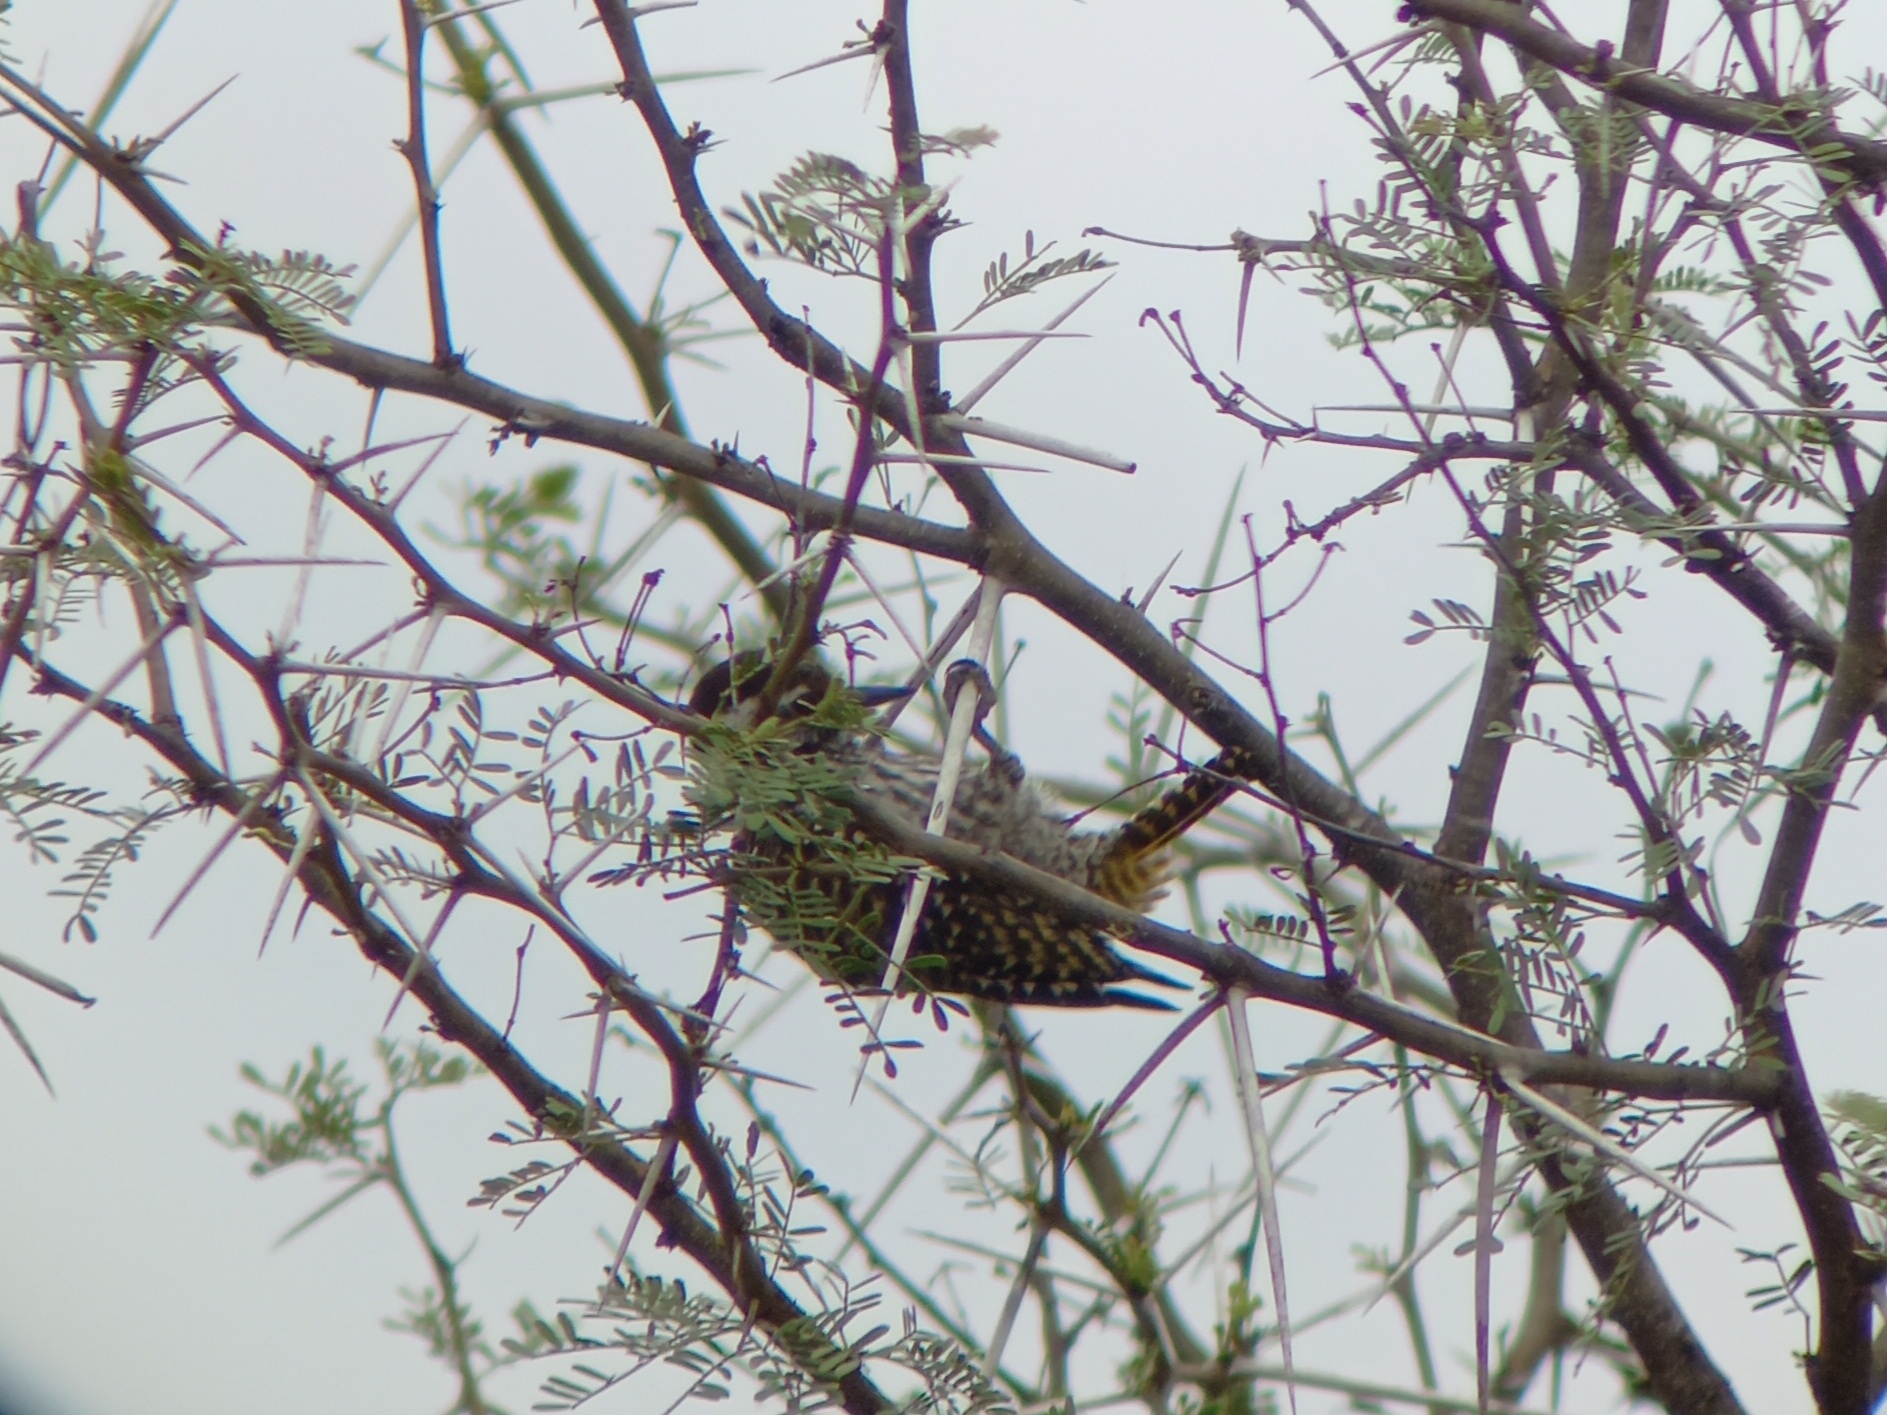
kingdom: Animalia
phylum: Chordata
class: Aves
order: Piciformes
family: Picidae
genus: Dendropicos
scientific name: Dendropicos fuscescens
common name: Cardinal woodpecker
